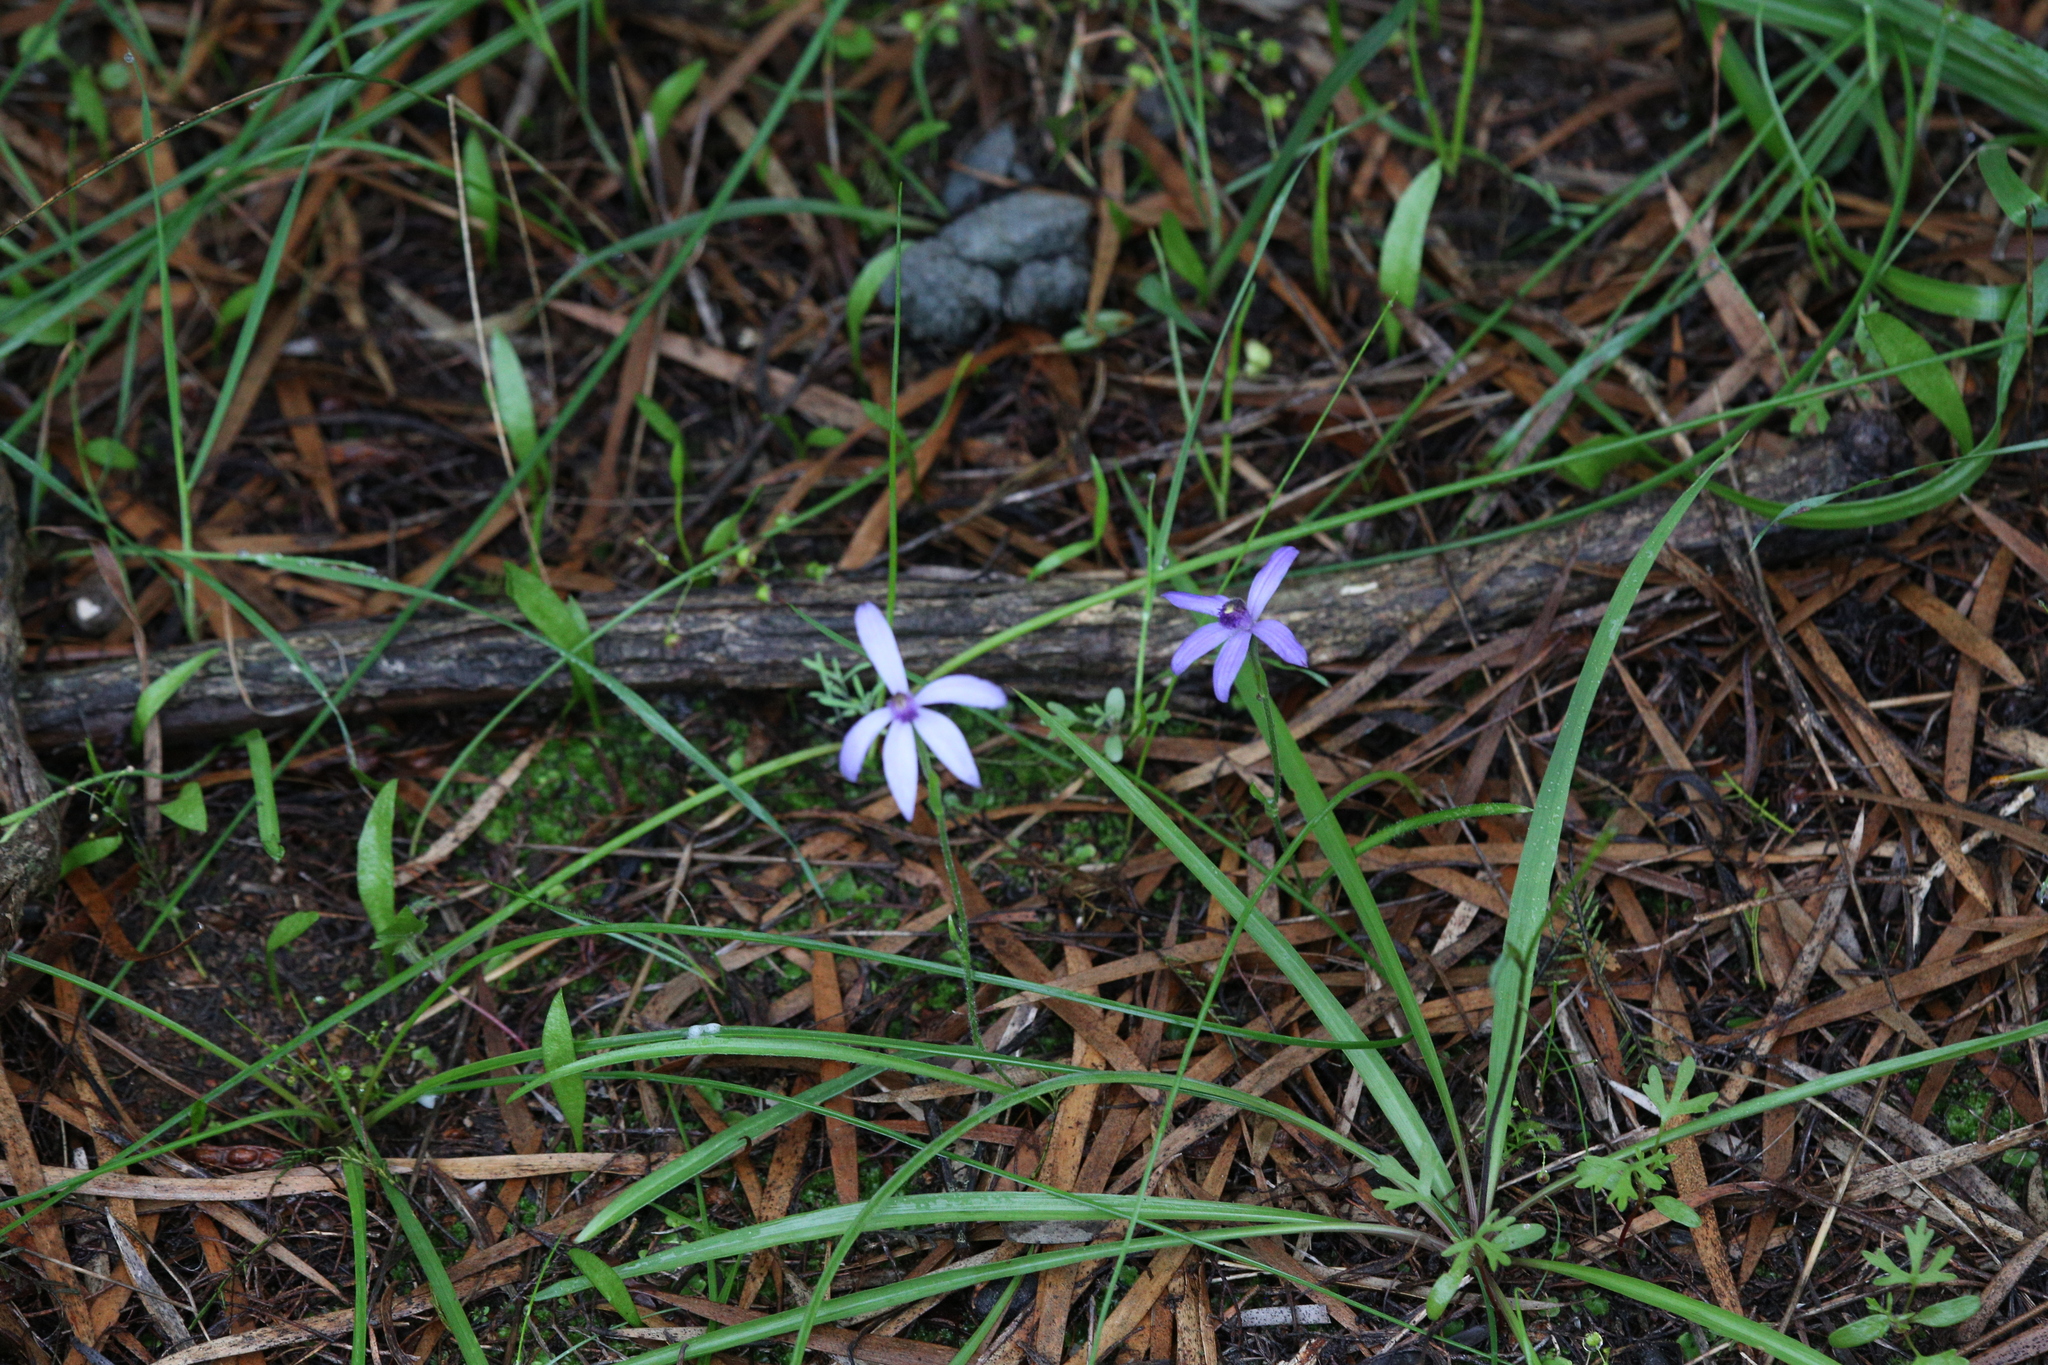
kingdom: Plantae
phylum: Tracheophyta
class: Liliopsida
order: Asparagales
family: Orchidaceae
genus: Pheladenia
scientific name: Pheladenia deformis
